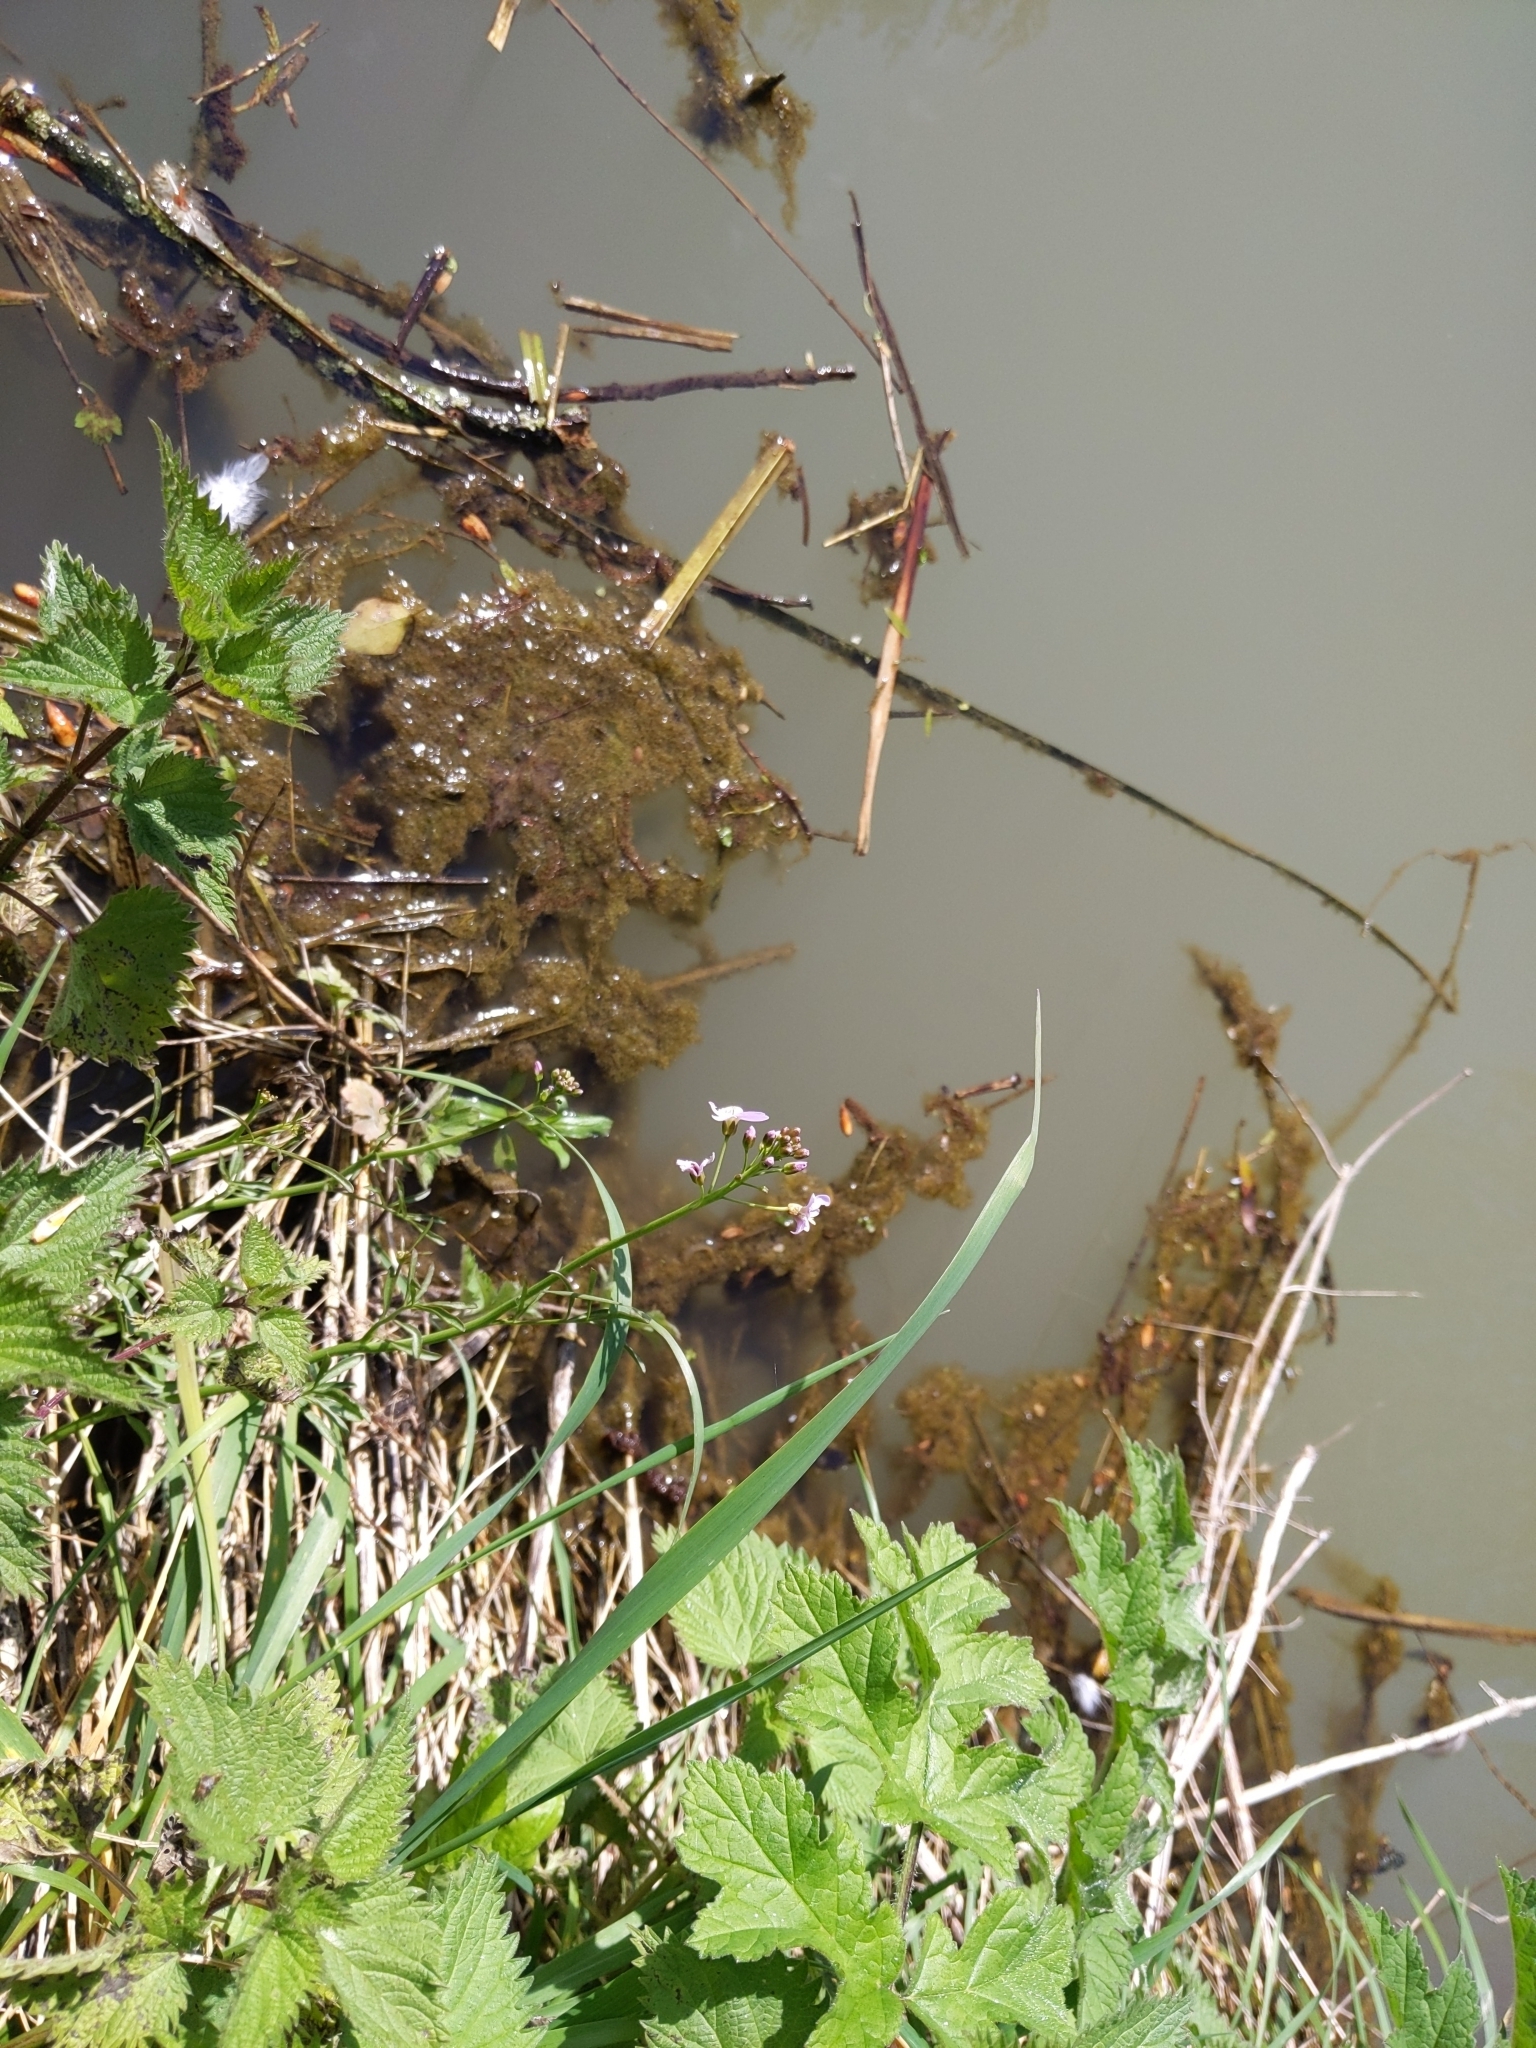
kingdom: Plantae
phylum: Tracheophyta
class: Magnoliopsida
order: Brassicales
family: Brassicaceae
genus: Cardamine
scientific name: Cardamine pratensis
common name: Cuckoo flower
